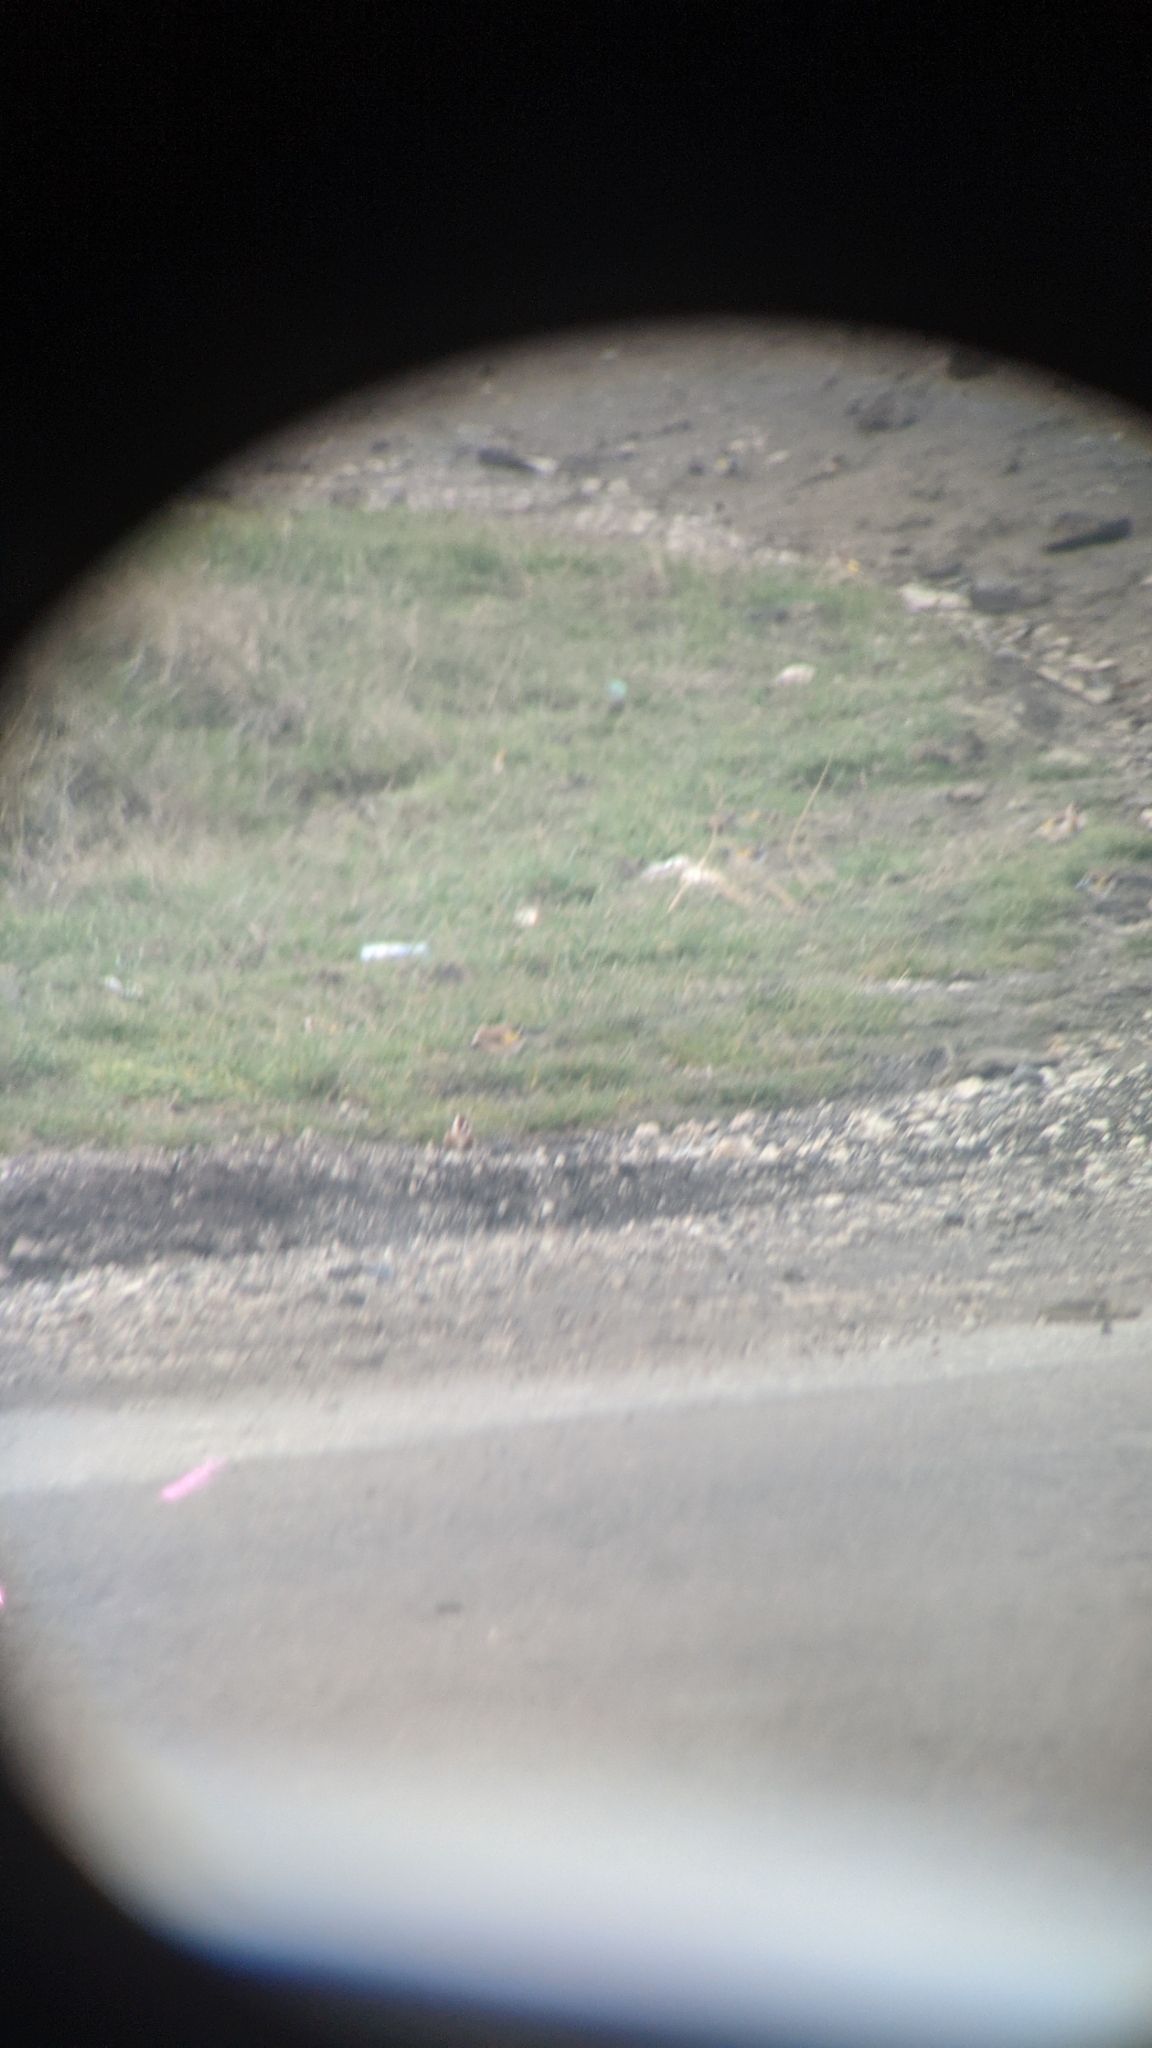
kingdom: Animalia
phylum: Chordata
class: Aves
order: Passeriformes
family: Fringillidae
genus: Carduelis
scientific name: Carduelis carduelis
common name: European goldfinch
